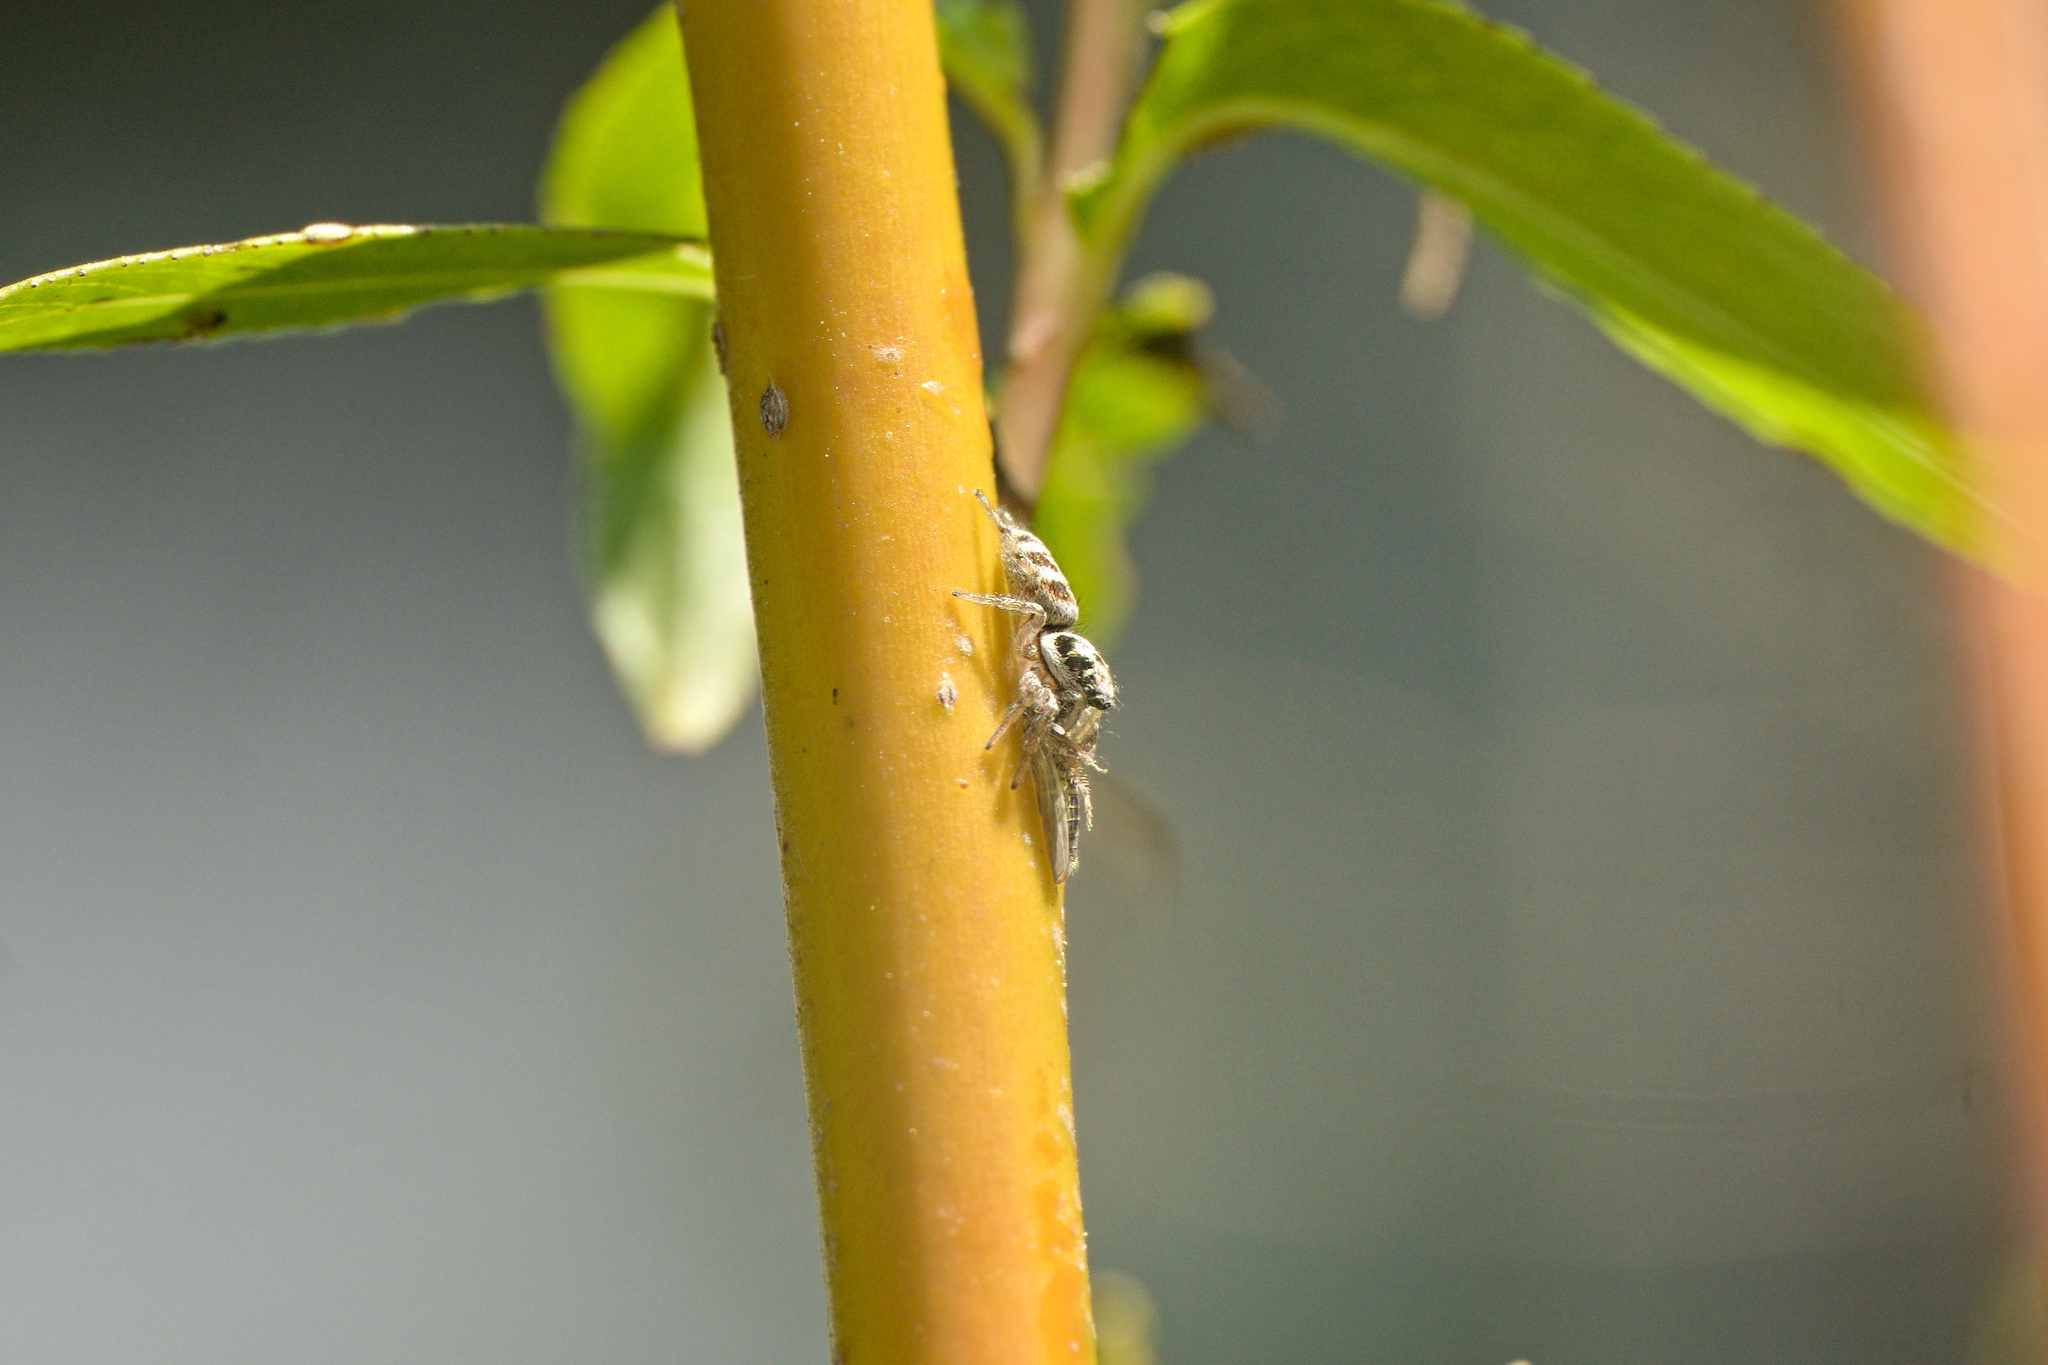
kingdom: Animalia
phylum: Arthropoda
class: Arachnida
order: Araneae
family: Salticidae
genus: Salticus
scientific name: Salticus scenicus
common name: Zebra jumper
